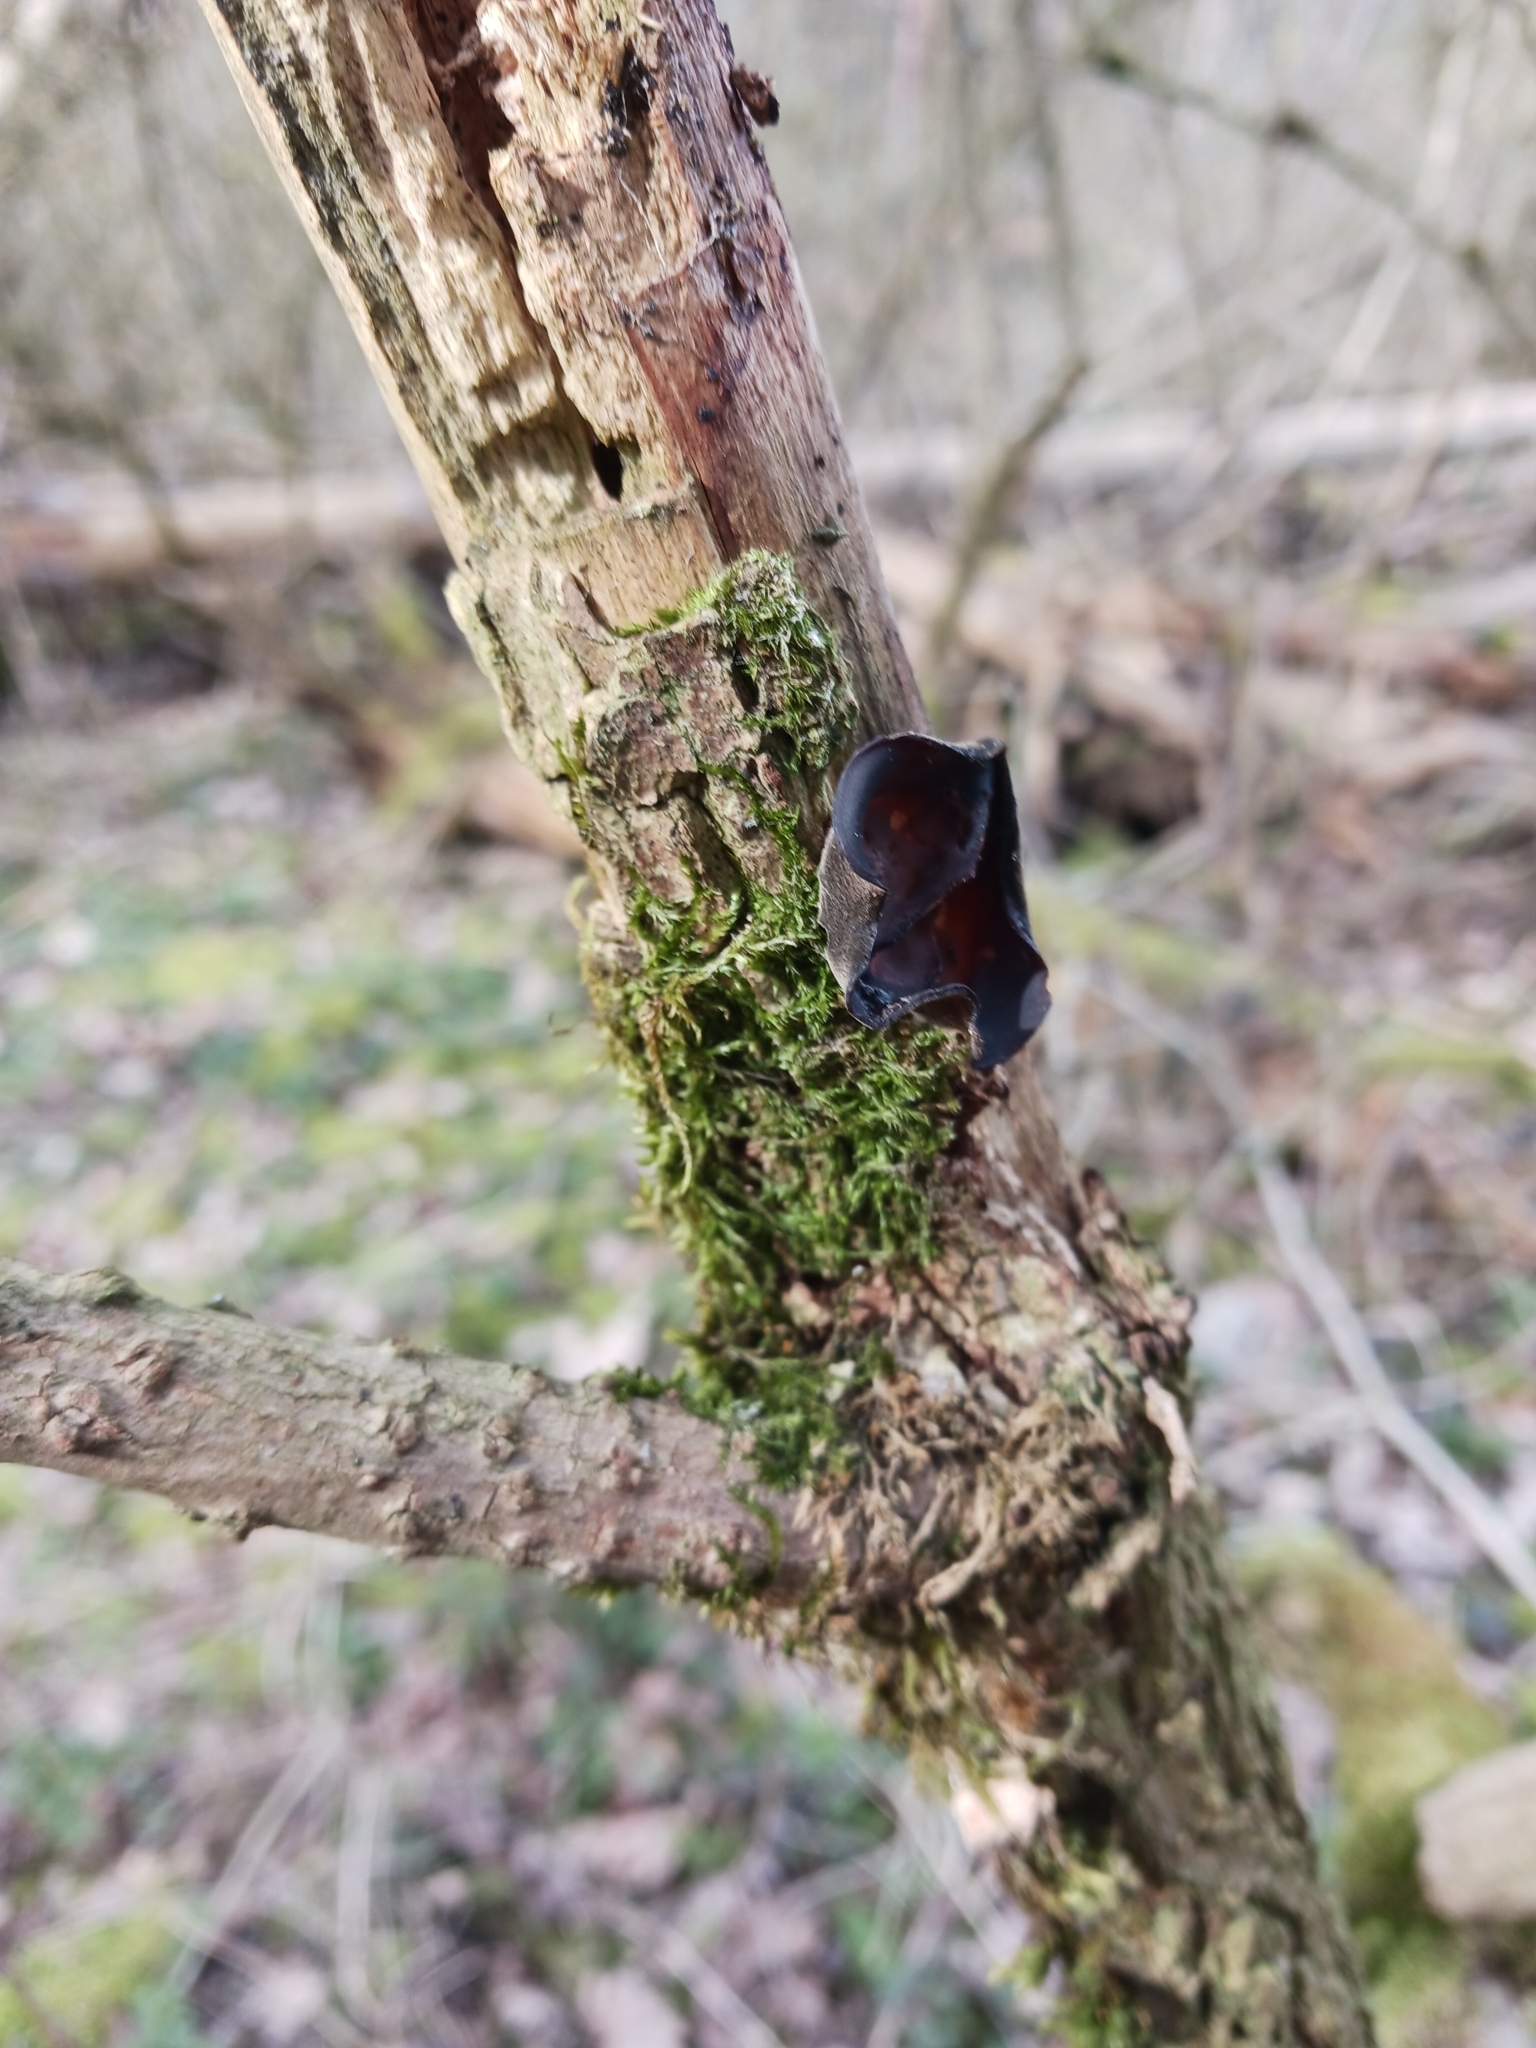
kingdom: Fungi
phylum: Basidiomycota
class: Agaricomycetes
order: Auriculariales
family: Auriculariaceae
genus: Auricularia
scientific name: Auricularia auricula-judae
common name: Jelly ear
